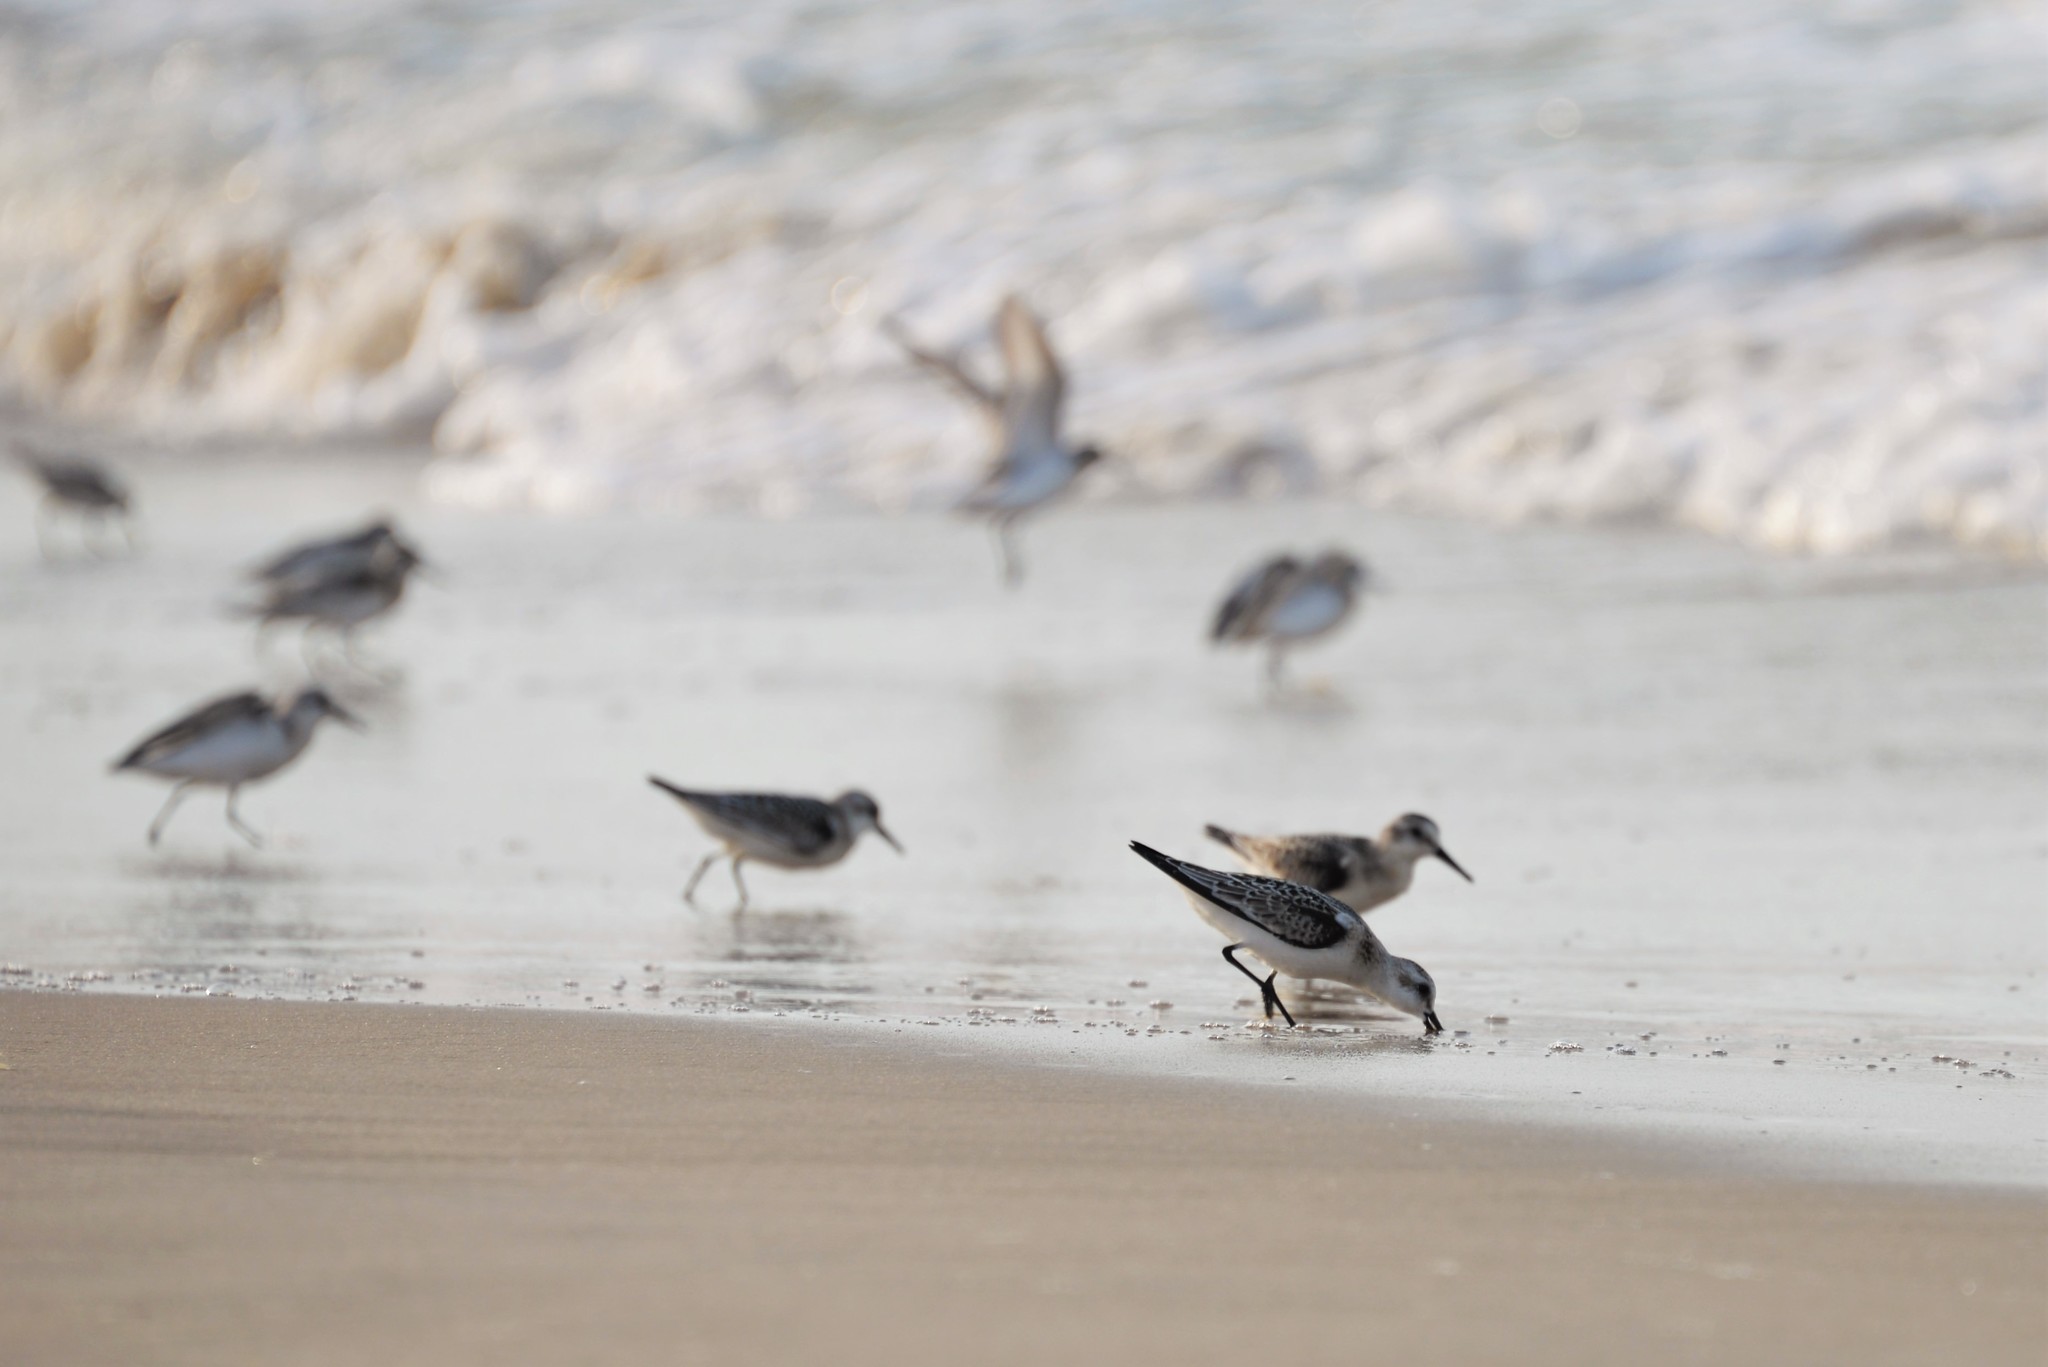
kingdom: Animalia
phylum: Chordata
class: Aves
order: Charadriiformes
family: Scolopacidae
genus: Calidris
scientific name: Calidris alba
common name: Sanderling
